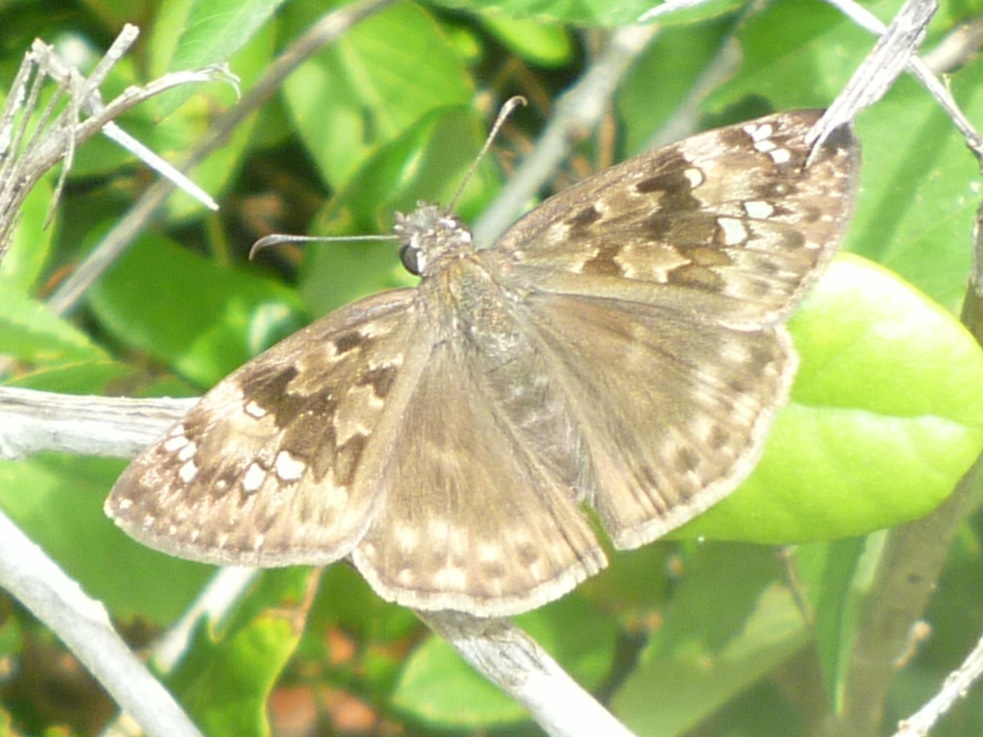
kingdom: Animalia
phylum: Arthropoda
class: Insecta
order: Lepidoptera
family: Hesperiidae
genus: Erynnis
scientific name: Erynnis horatius
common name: Horace's duskywing
